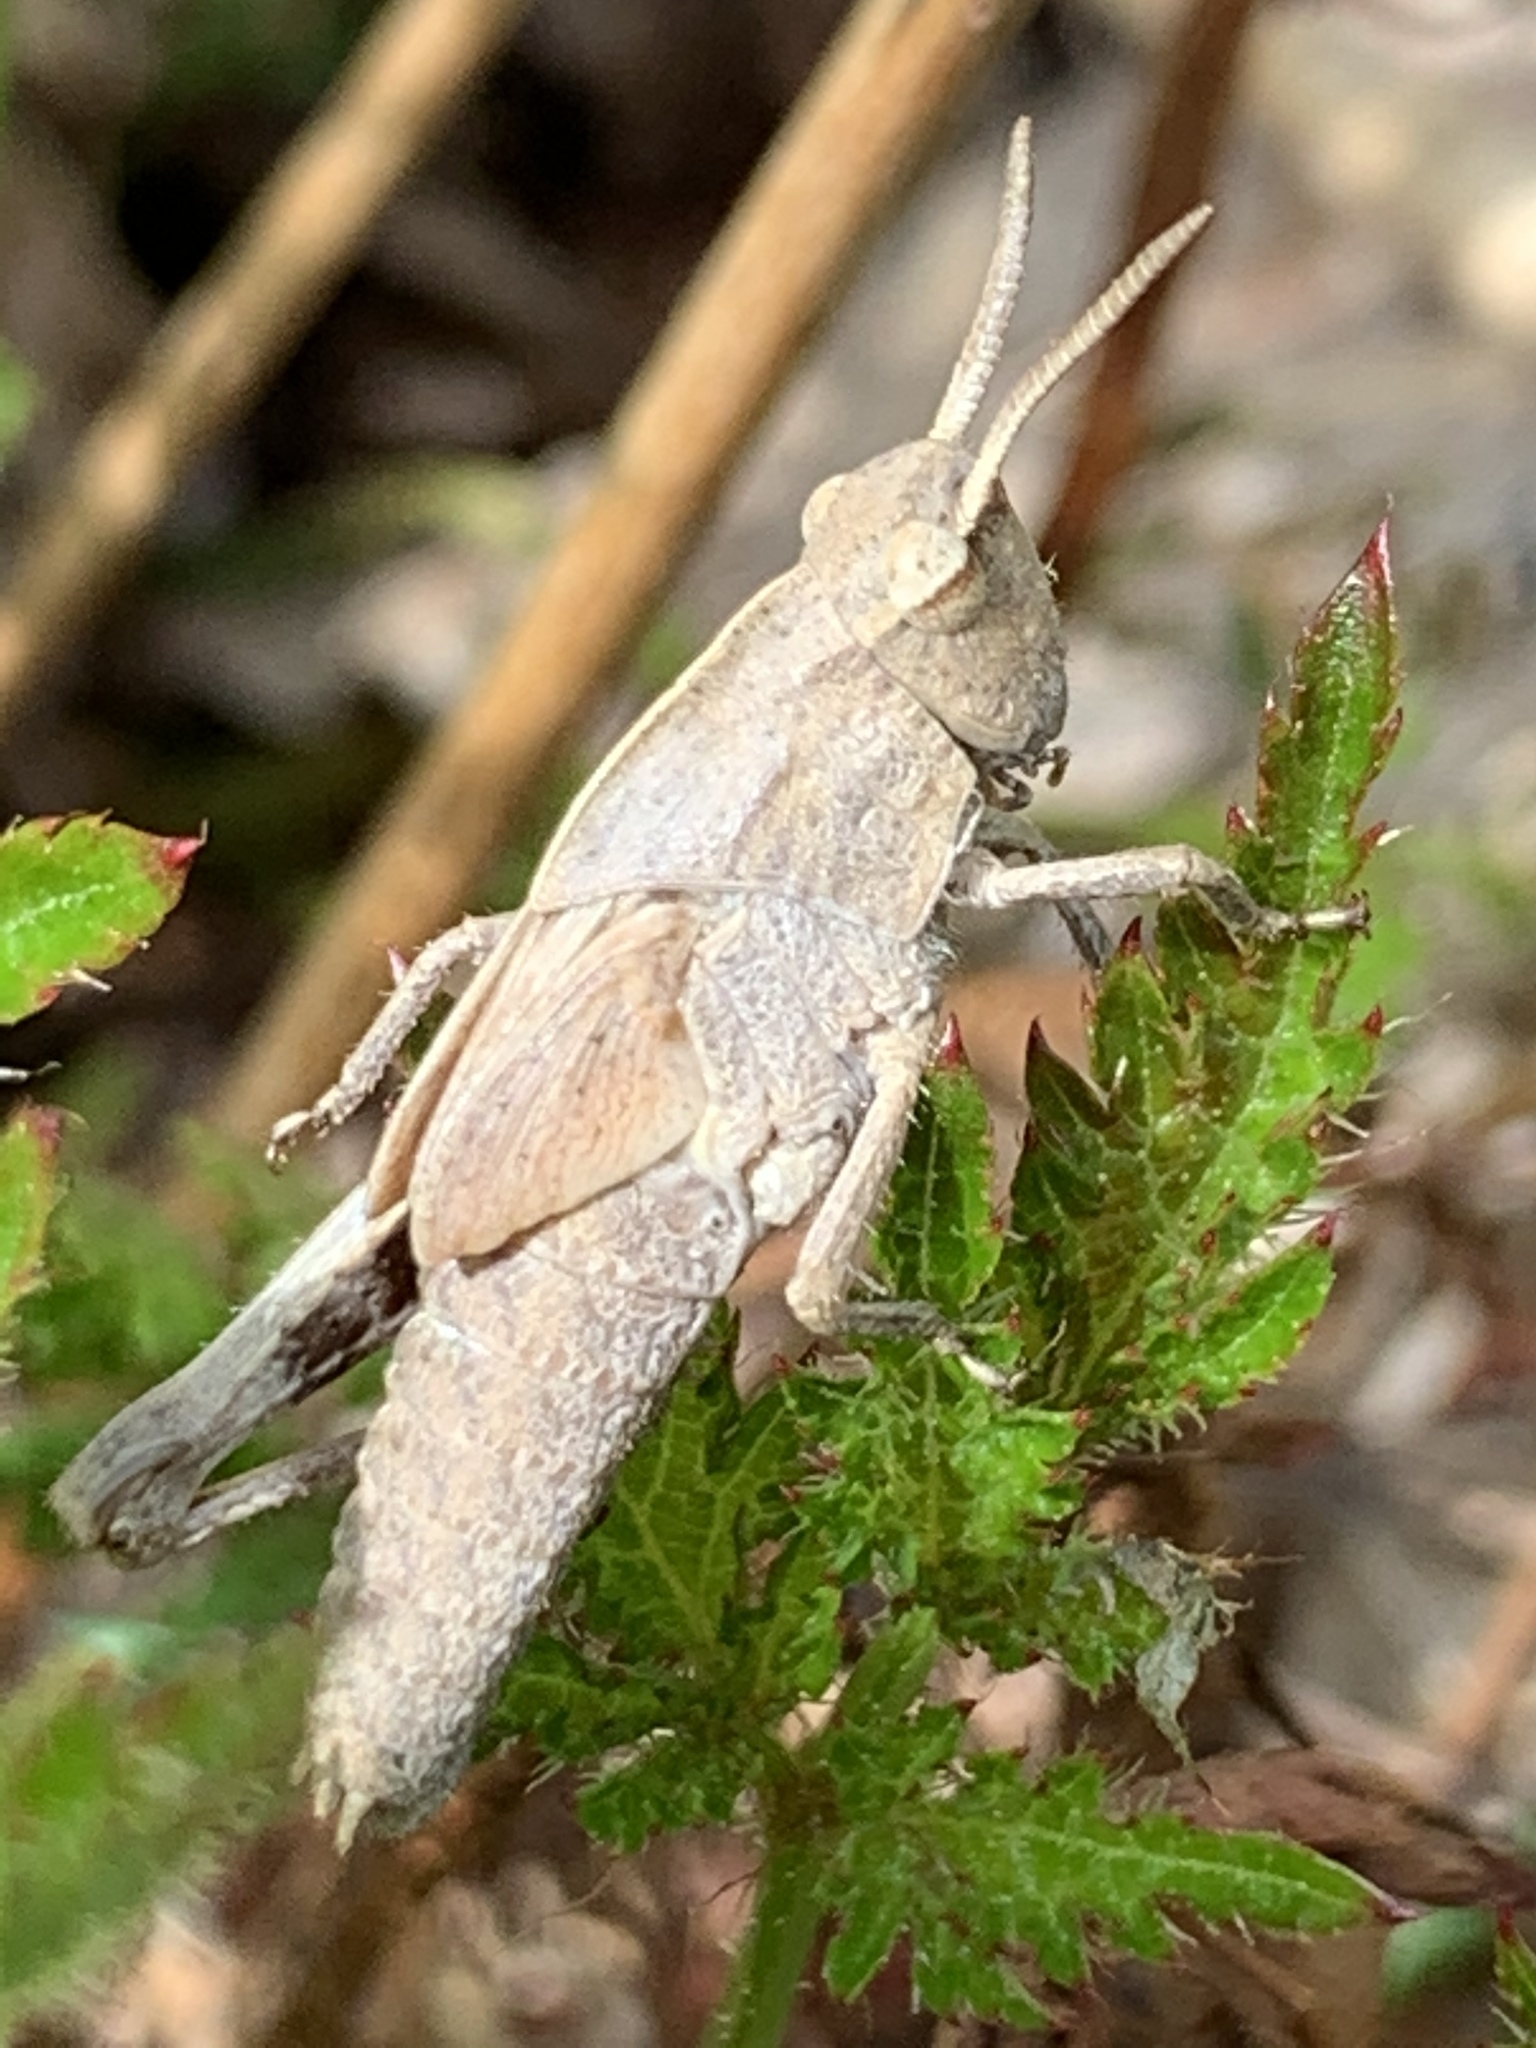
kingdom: Animalia
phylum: Arthropoda
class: Insecta
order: Orthoptera
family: Acrididae
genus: Chortophaga
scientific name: Chortophaga viridifasciata
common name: Green-striped grasshopper
